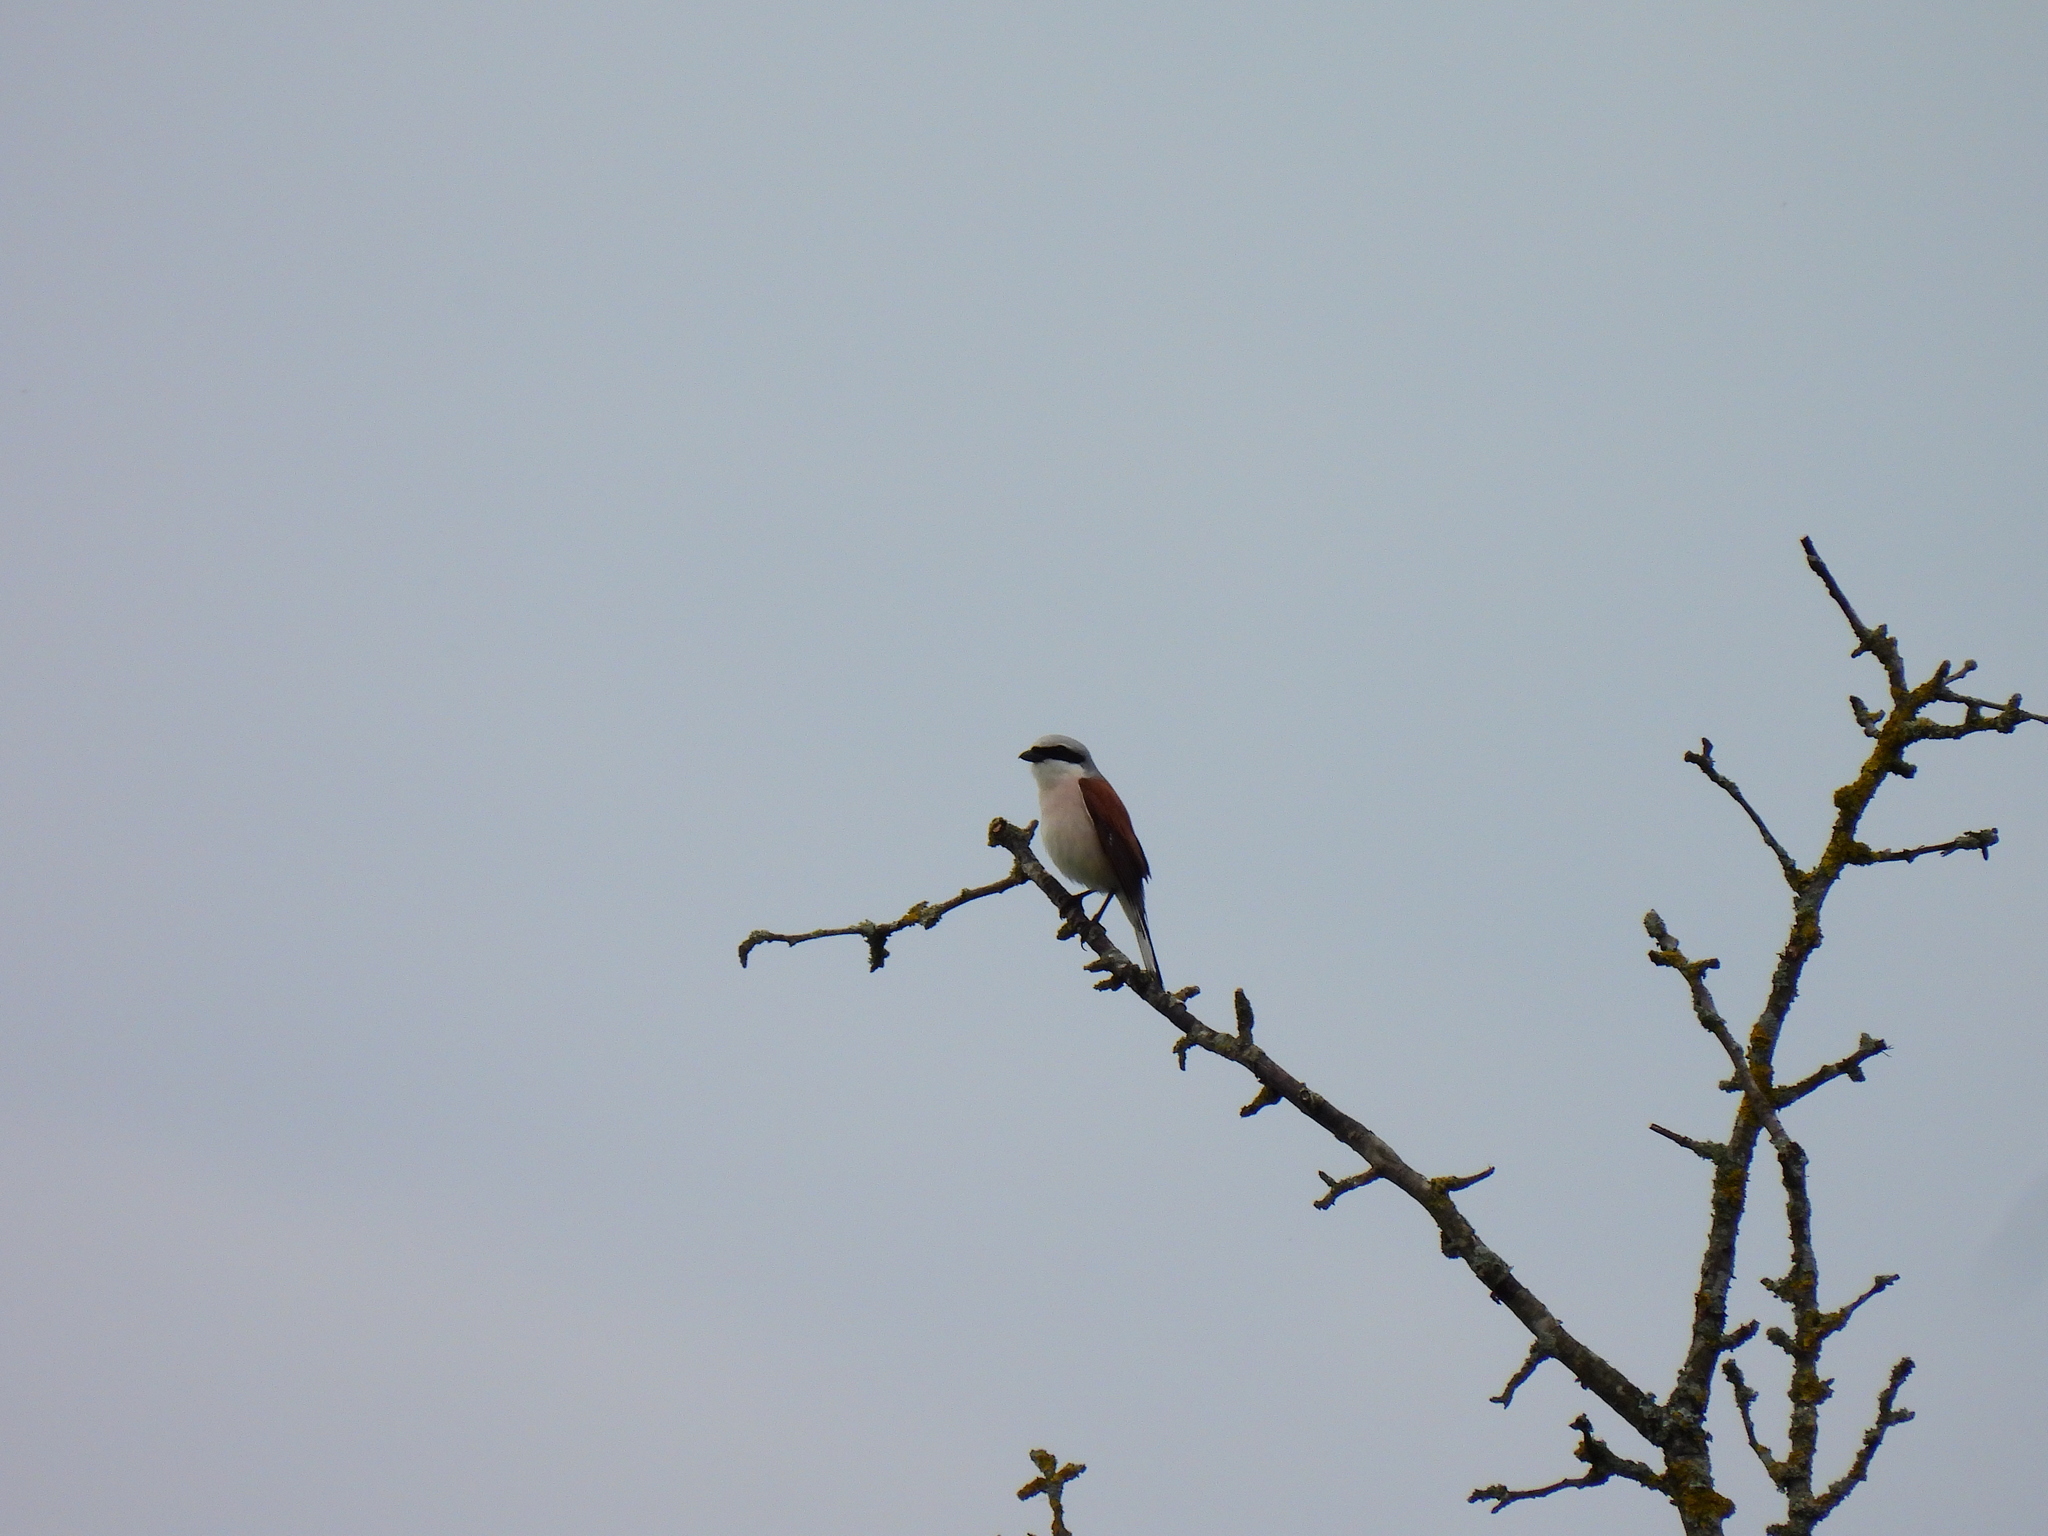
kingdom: Animalia
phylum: Chordata
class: Aves
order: Passeriformes
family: Laniidae
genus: Lanius
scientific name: Lanius collurio
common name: Red-backed shrike
